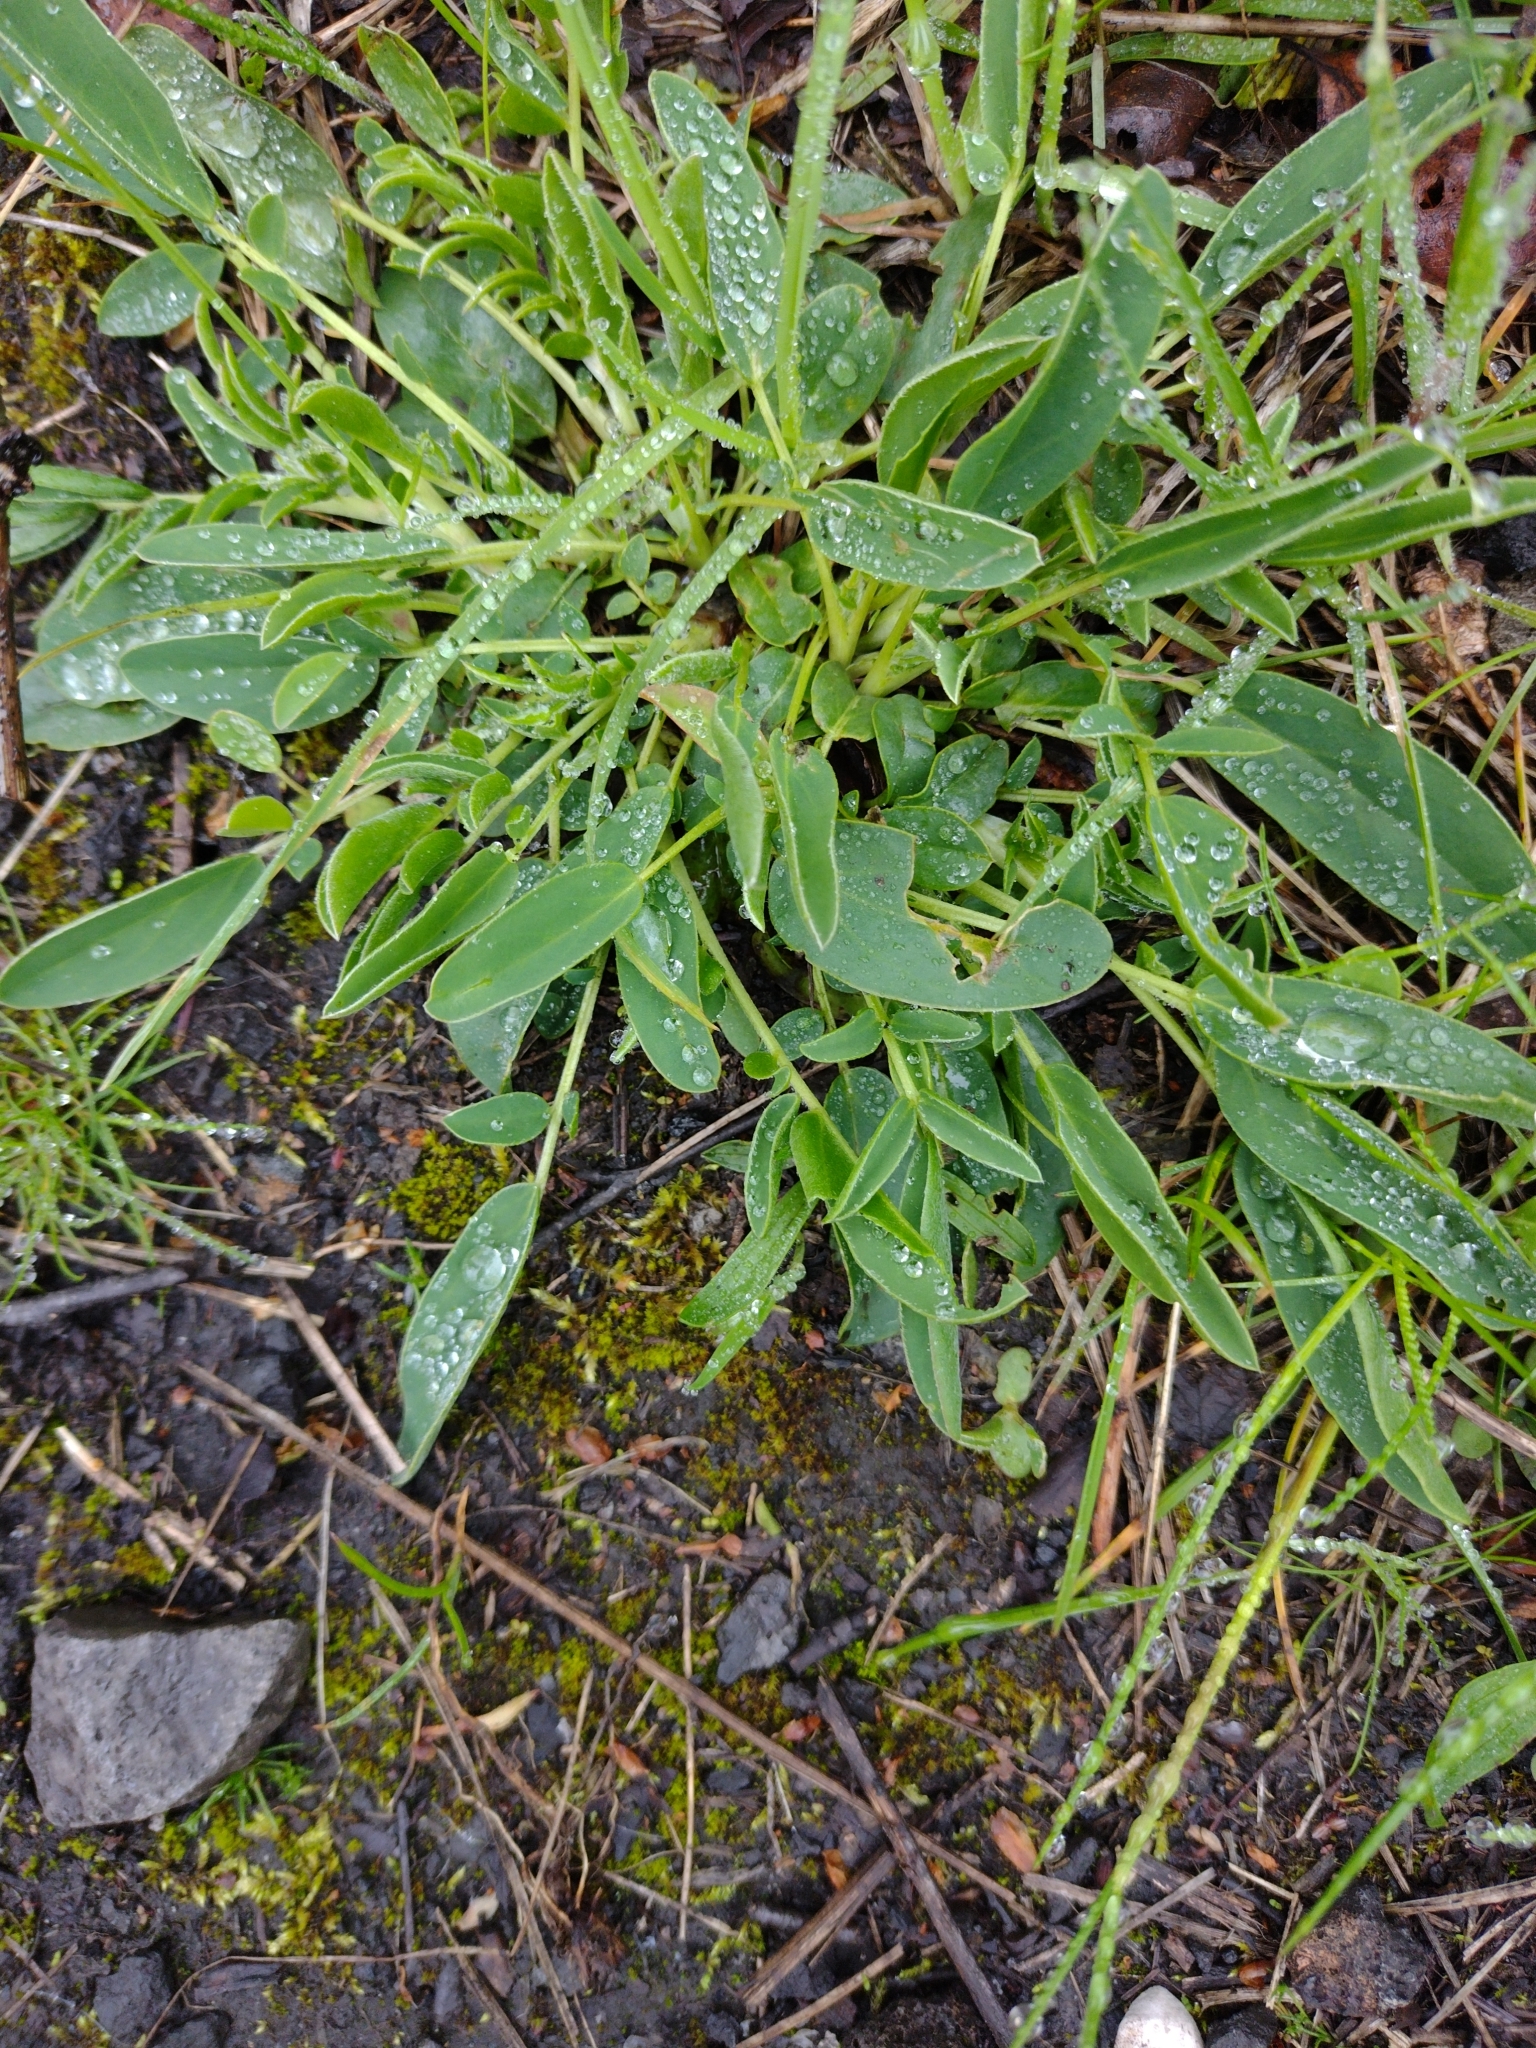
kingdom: Plantae
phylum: Tracheophyta
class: Magnoliopsida
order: Fabales
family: Fabaceae
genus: Anthyllis
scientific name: Anthyllis vulneraria
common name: Kidney vetch
